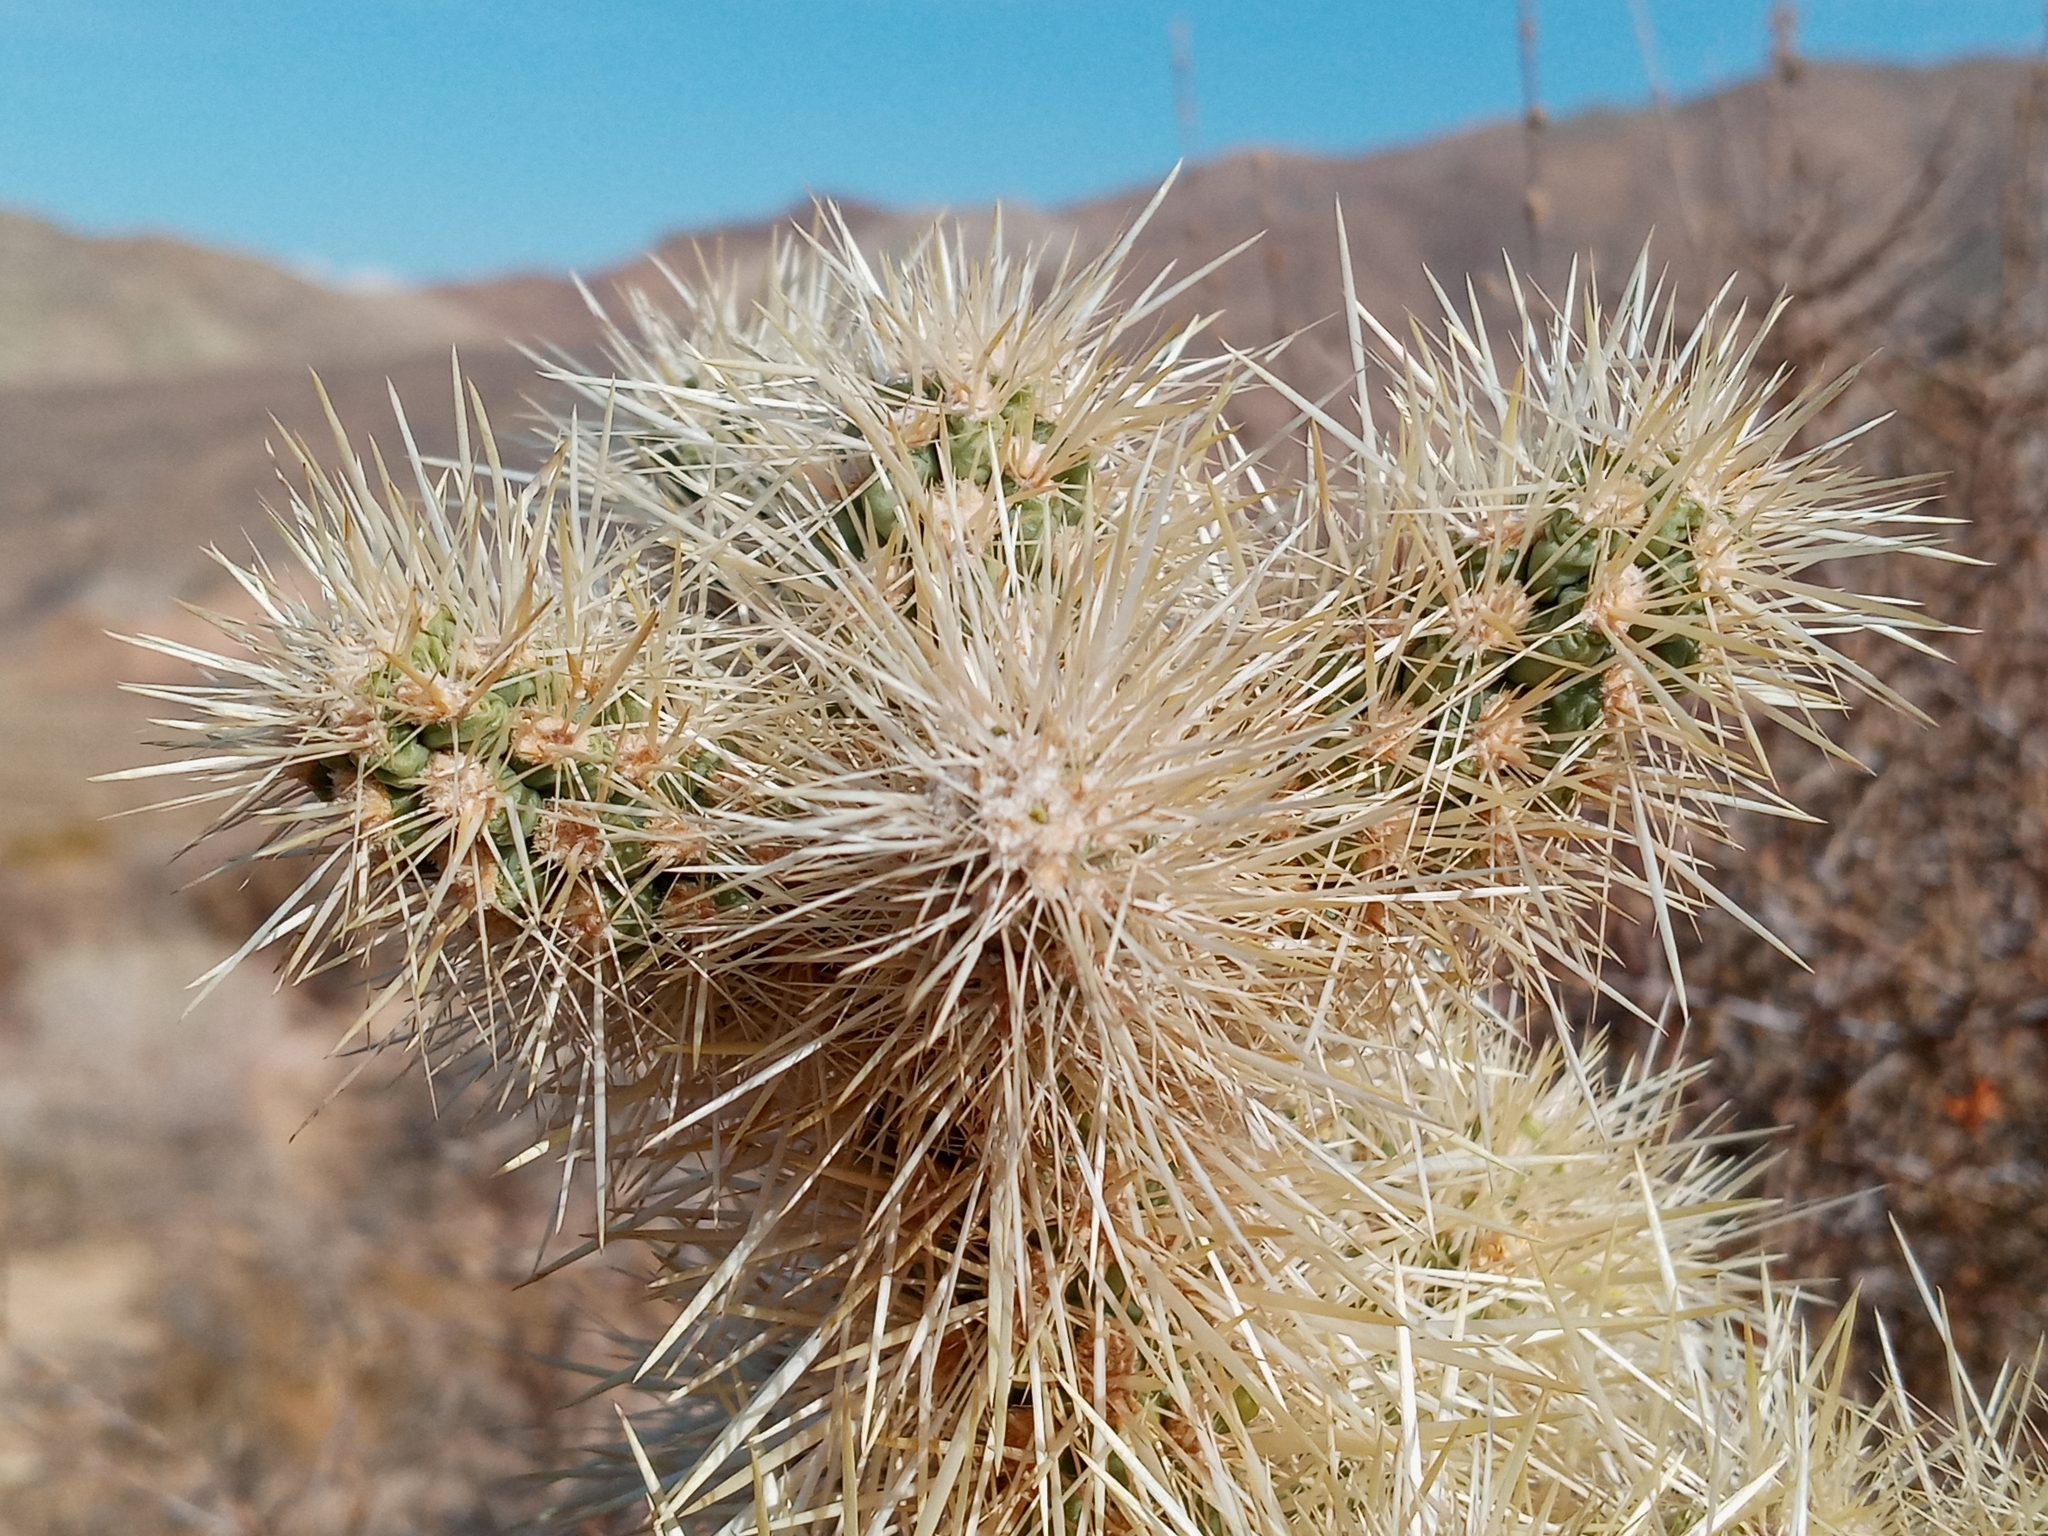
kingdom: Plantae
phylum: Tracheophyta
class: Magnoliopsida
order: Caryophyllales
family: Cactaceae
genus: Cylindropuntia
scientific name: Cylindropuntia echinocarpa
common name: Ground cholla
